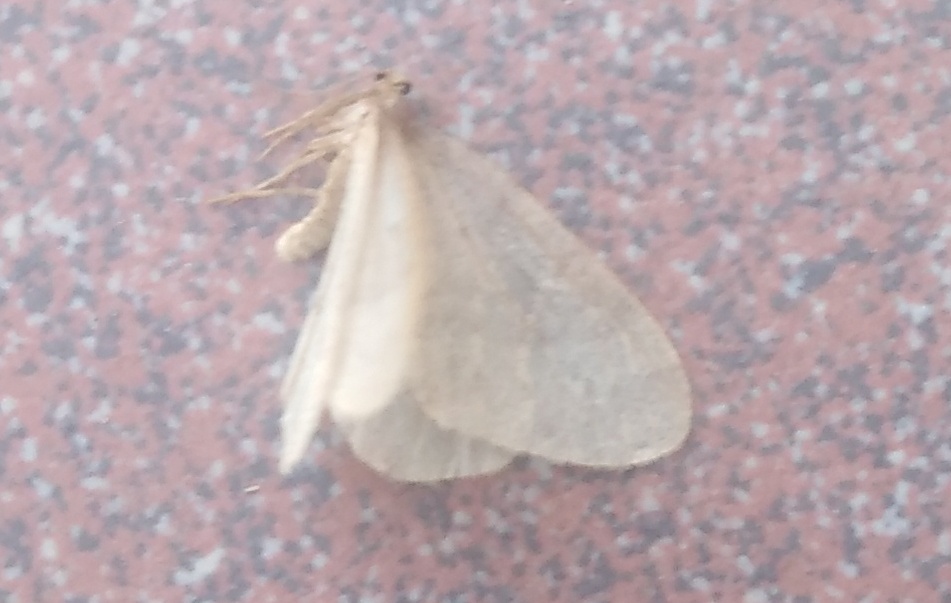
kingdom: Animalia
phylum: Arthropoda
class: Insecta
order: Lepidoptera
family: Geometridae
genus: Operophtera
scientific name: Operophtera brumata
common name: Winter moth
